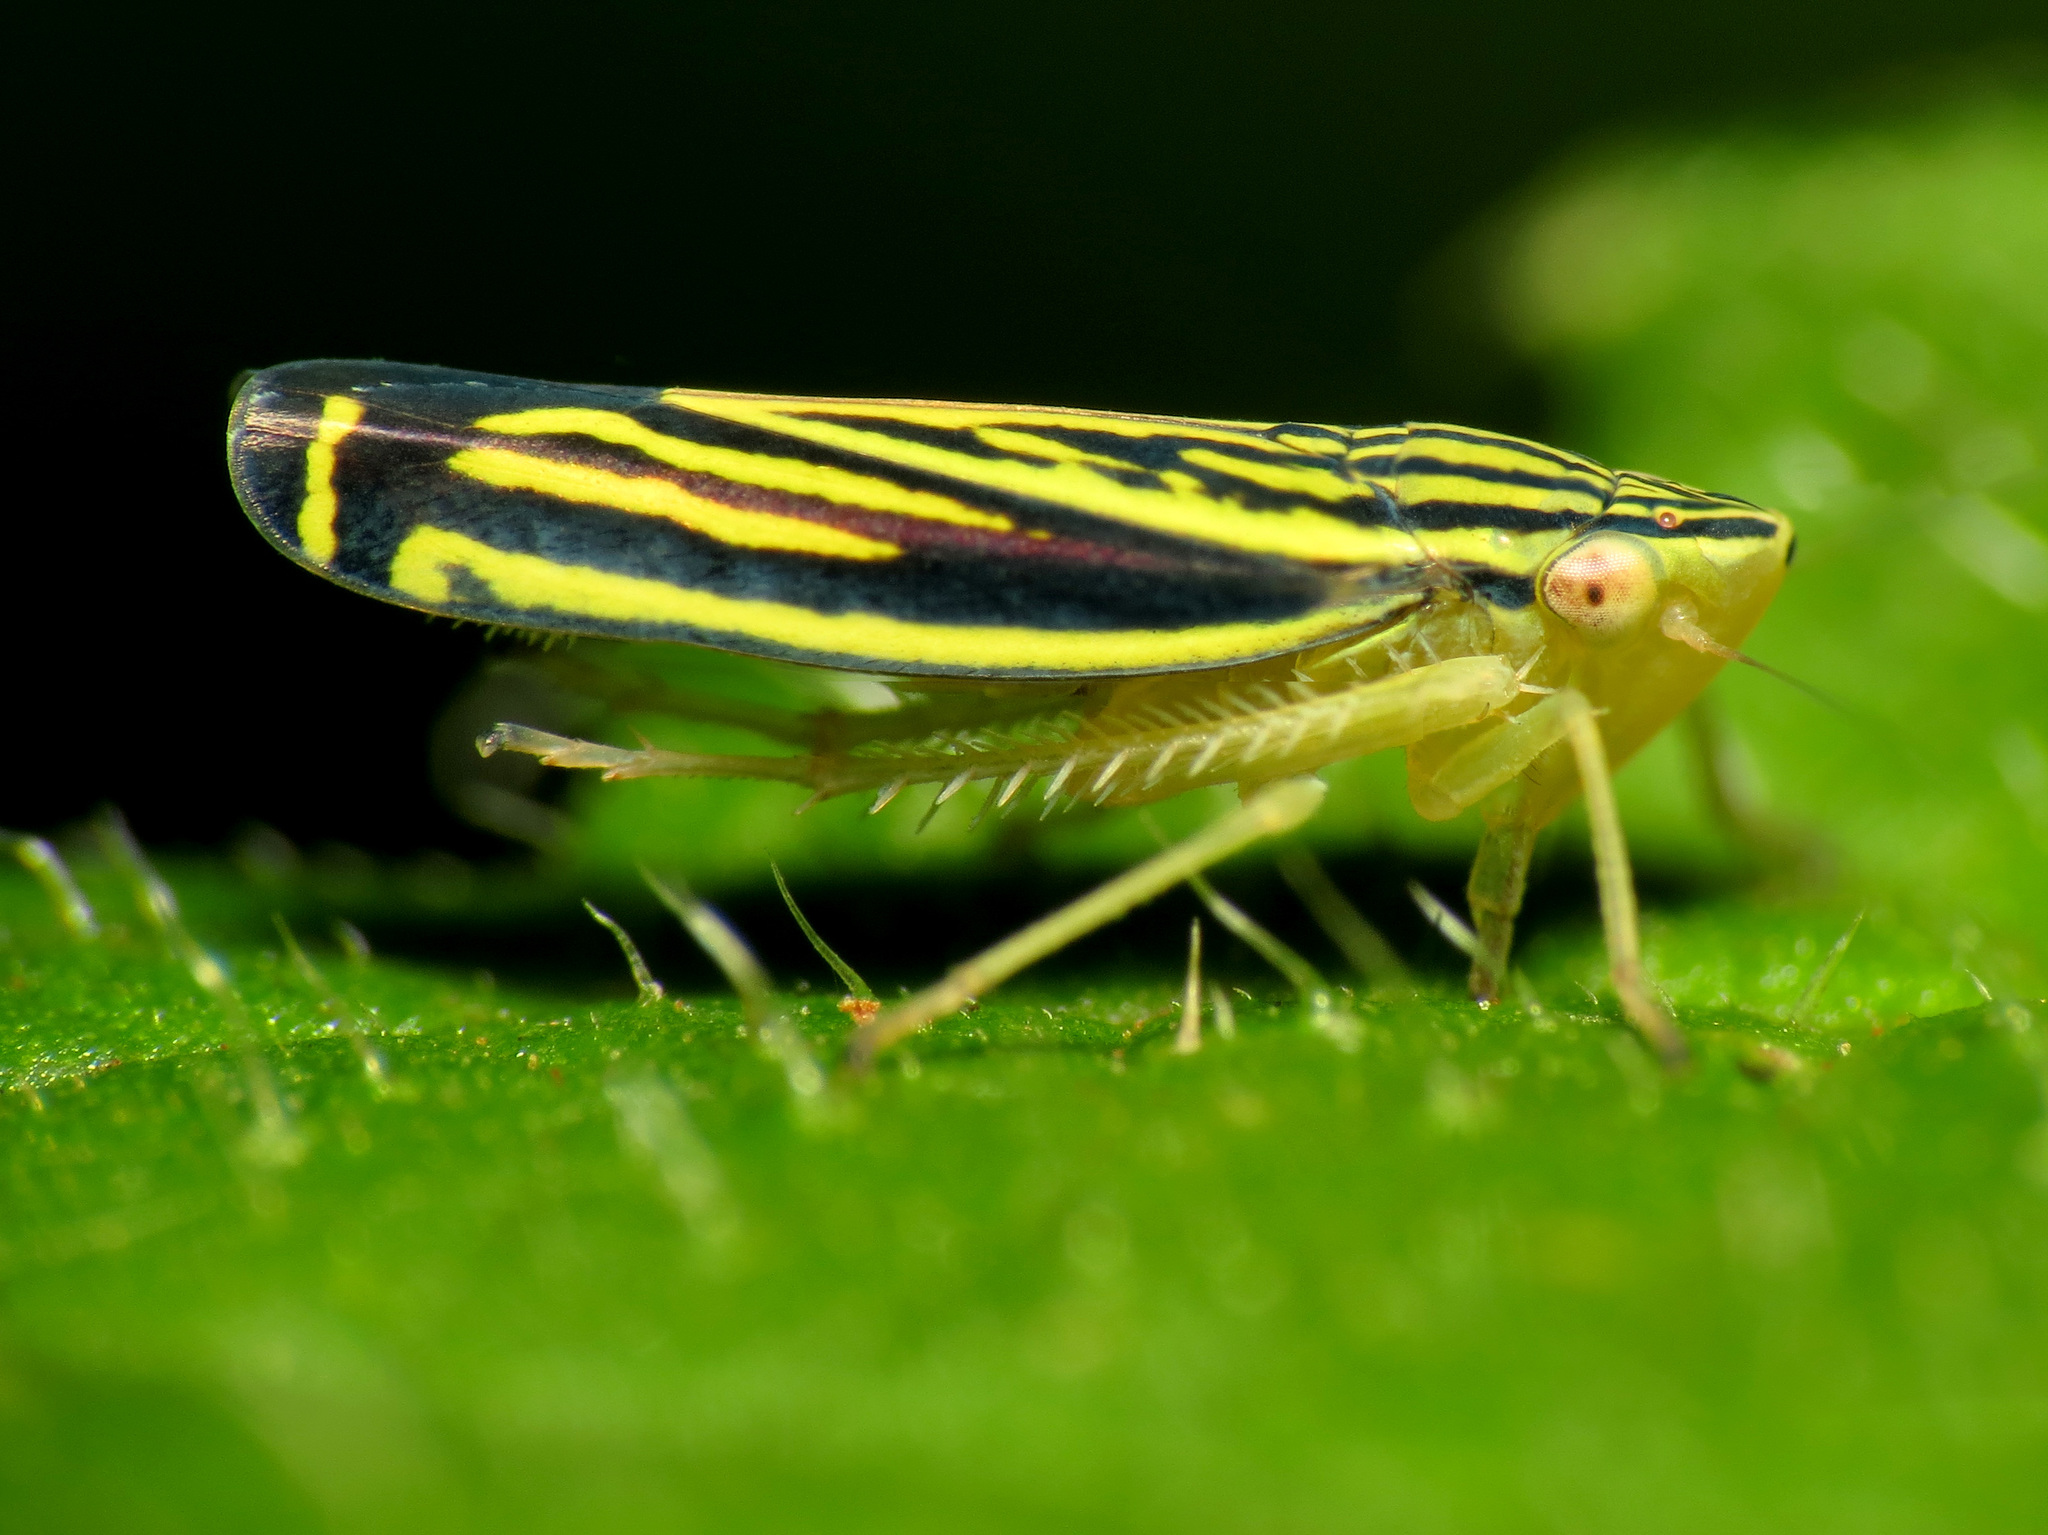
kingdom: Animalia
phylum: Arthropoda
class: Insecta
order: Hemiptera
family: Cicadellidae
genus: Sibovia
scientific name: Sibovia occatoria
